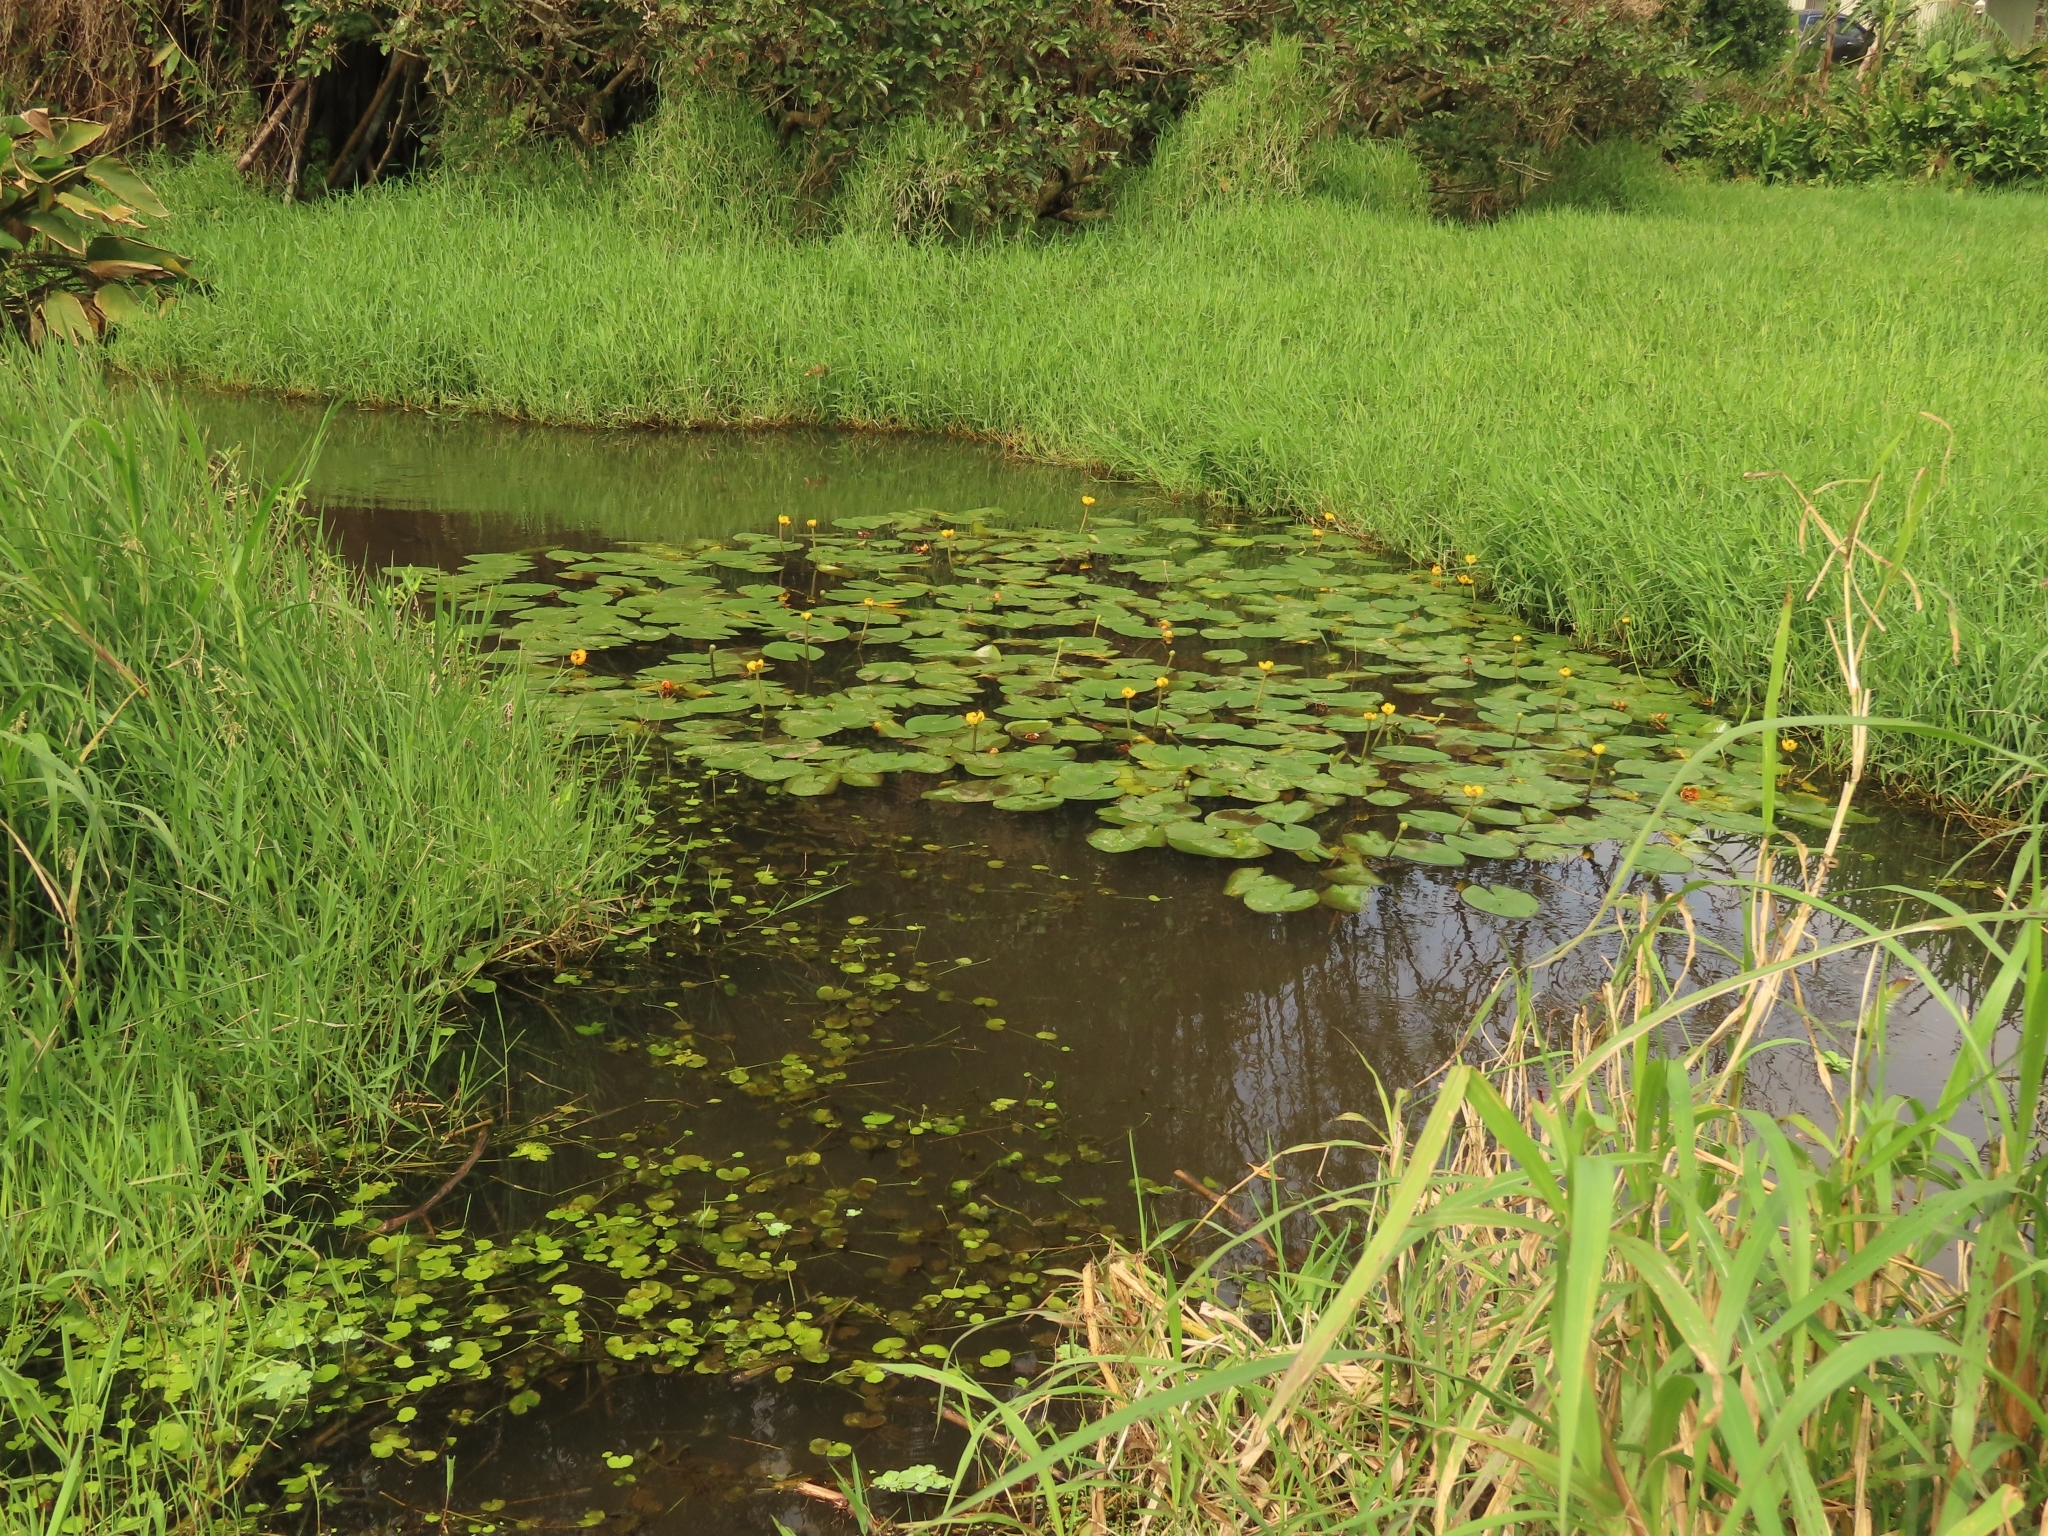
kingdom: Plantae
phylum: Tracheophyta
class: Magnoliopsida
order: Nymphaeales
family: Nymphaeaceae
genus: Nuphar
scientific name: Nuphar pumila
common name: Least water-lily
